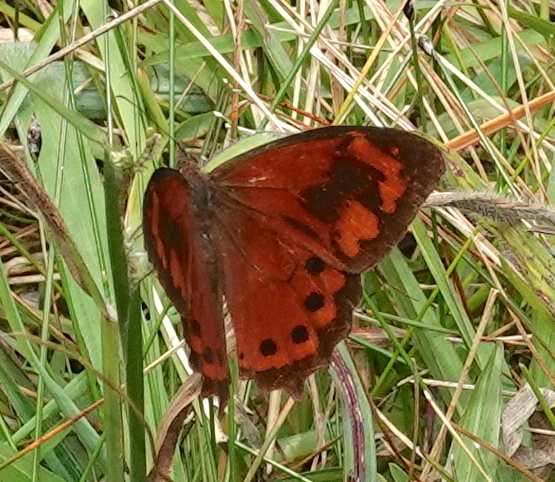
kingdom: Animalia
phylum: Arthropoda
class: Insecta
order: Lepidoptera
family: Nymphalidae
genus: Lasiophila
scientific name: Lasiophila zapatoza
